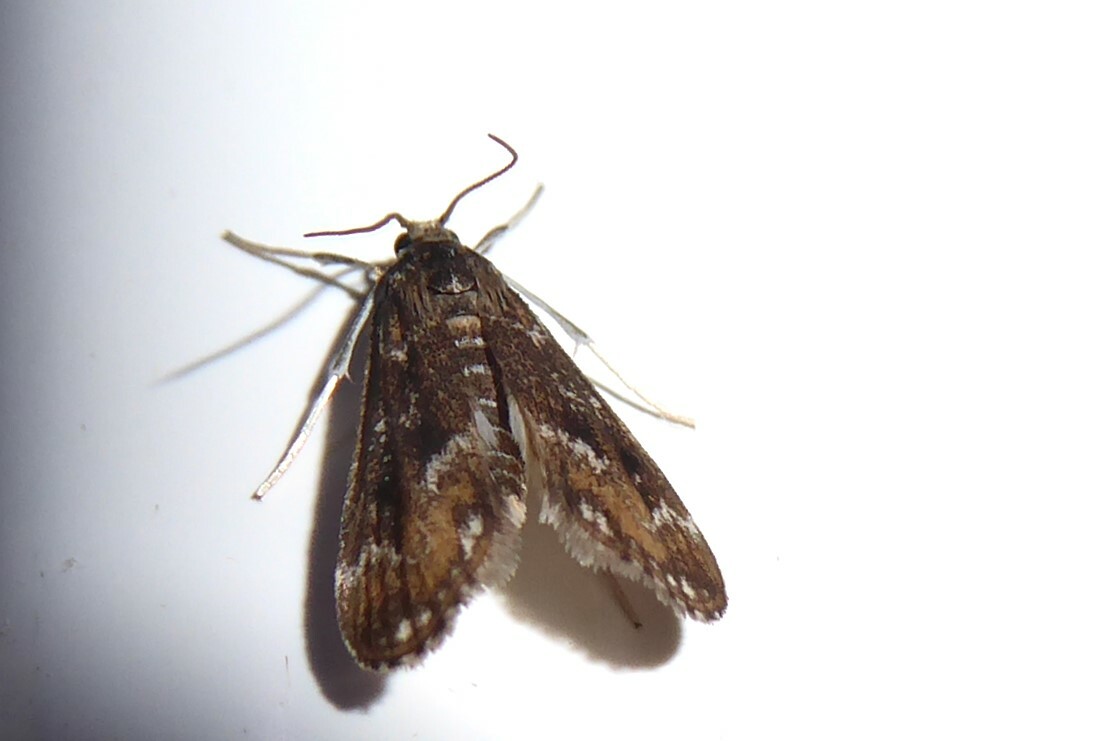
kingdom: Animalia
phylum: Arthropoda
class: Insecta
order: Lepidoptera
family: Crambidae
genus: Hygraula
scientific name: Hygraula nitens
